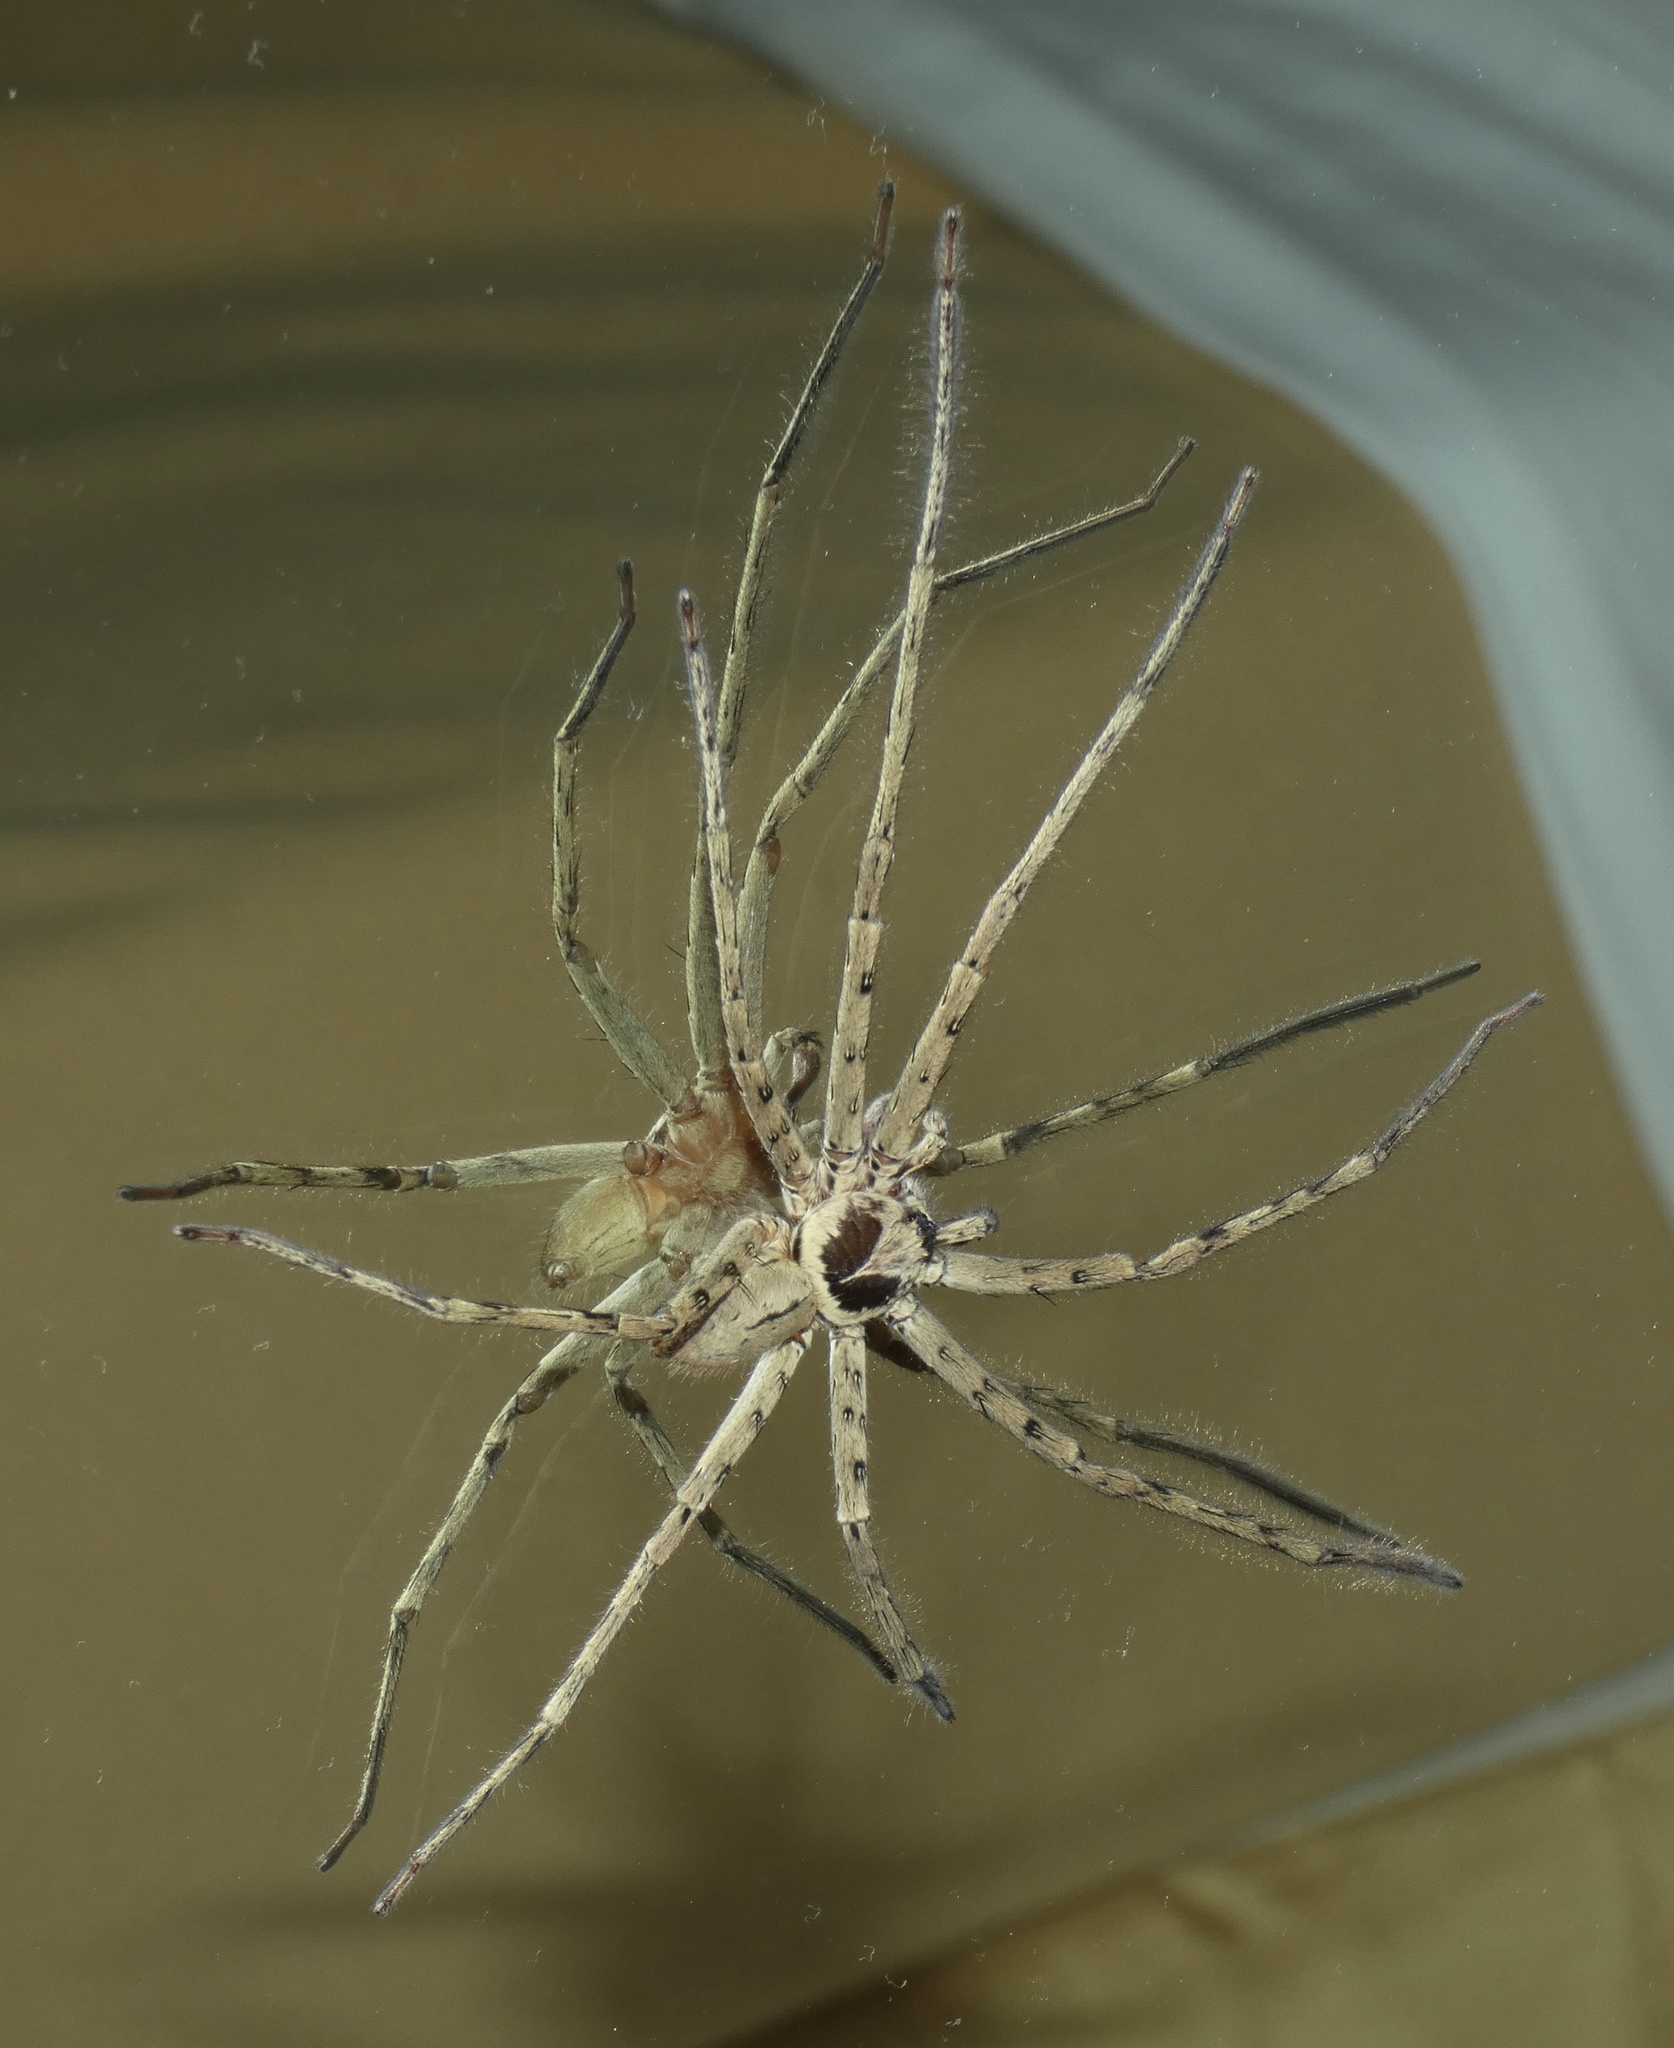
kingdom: Animalia
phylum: Arthropoda
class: Arachnida
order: Araneae
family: Sparassidae
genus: Heteropoda
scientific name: Heteropoda venatoria
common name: Huntsman spider
